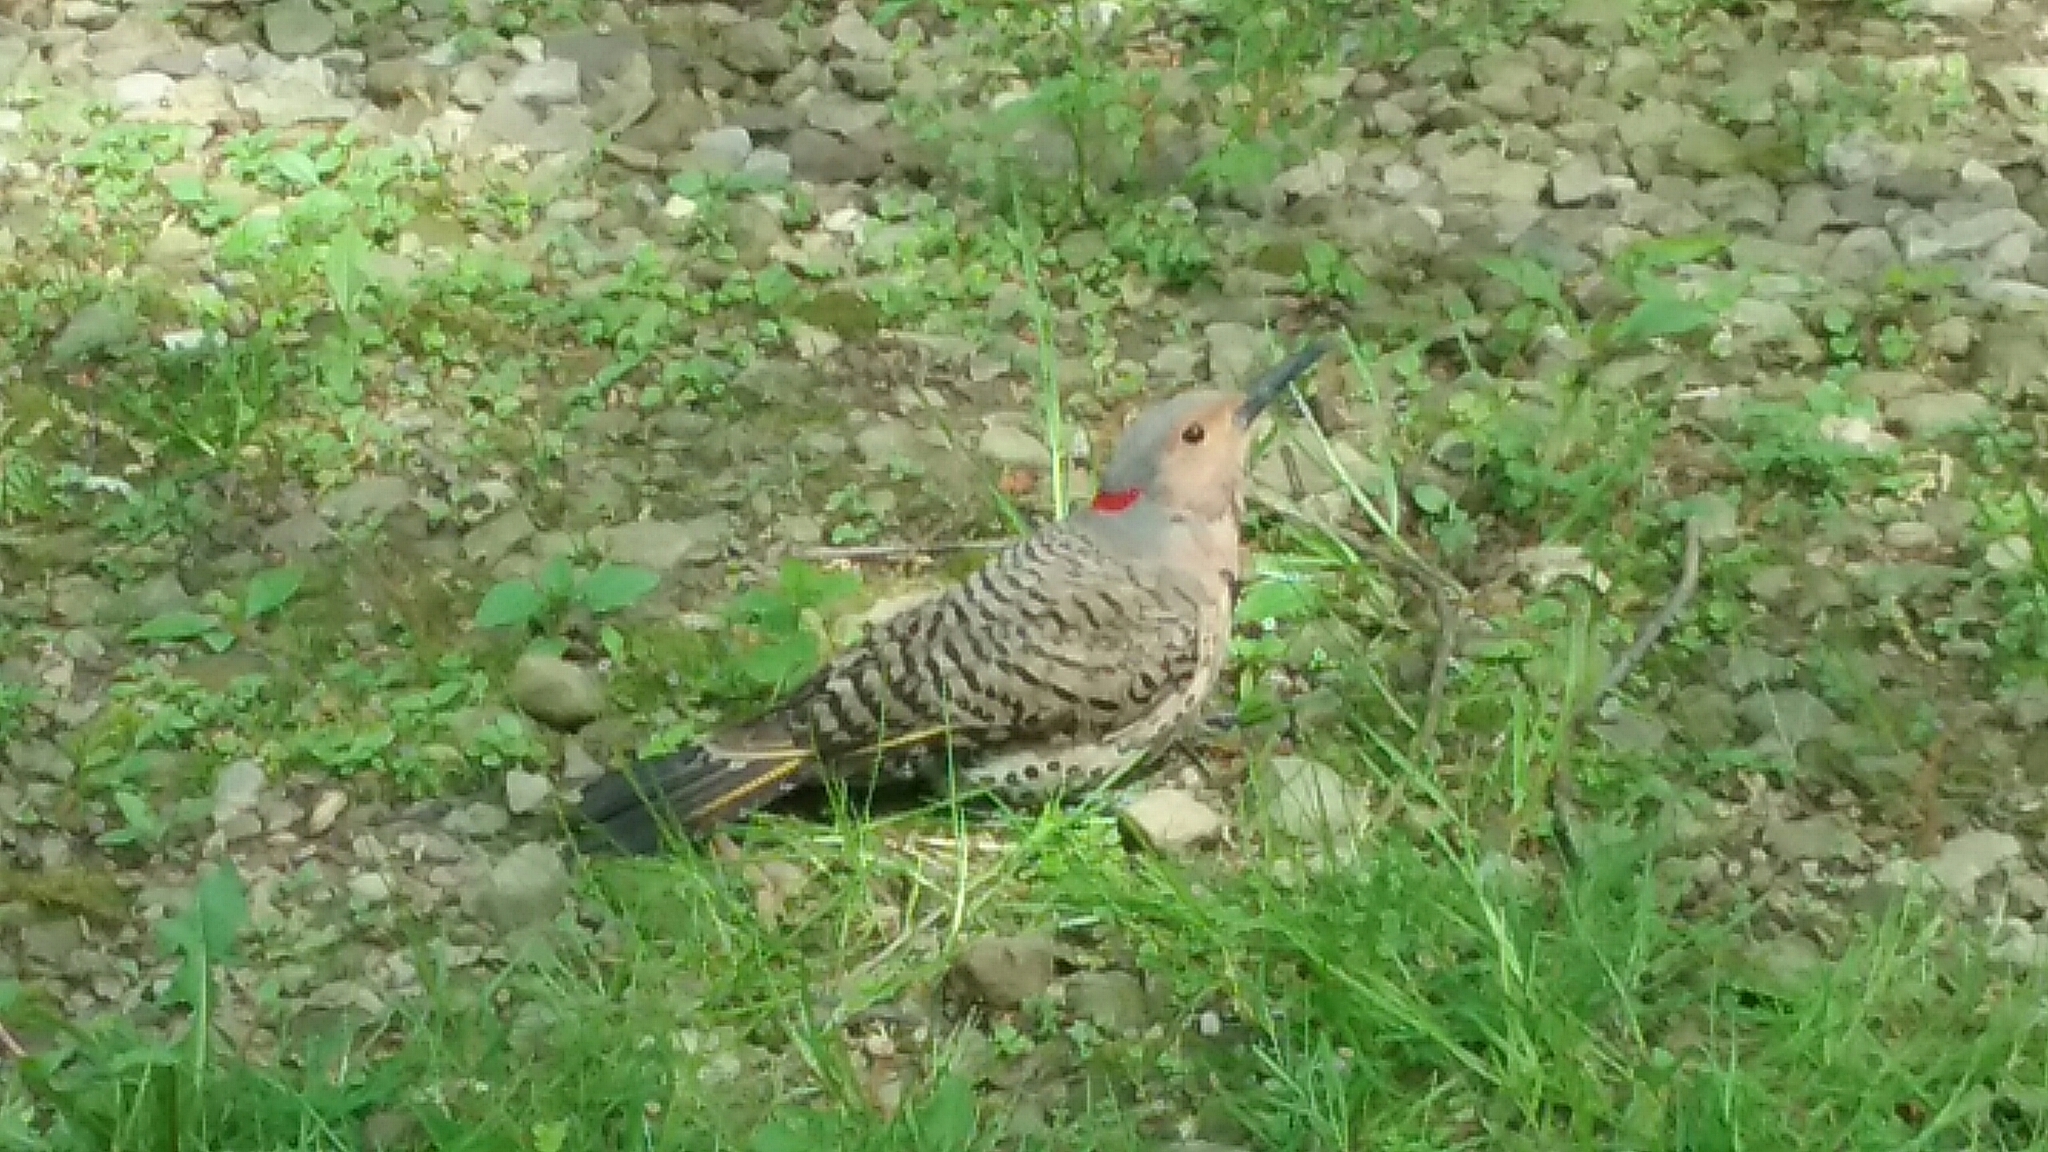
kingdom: Animalia
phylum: Chordata
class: Aves
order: Piciformes
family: Picidae
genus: Colaptes
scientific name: Colaptes auratus
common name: Northern flicker
